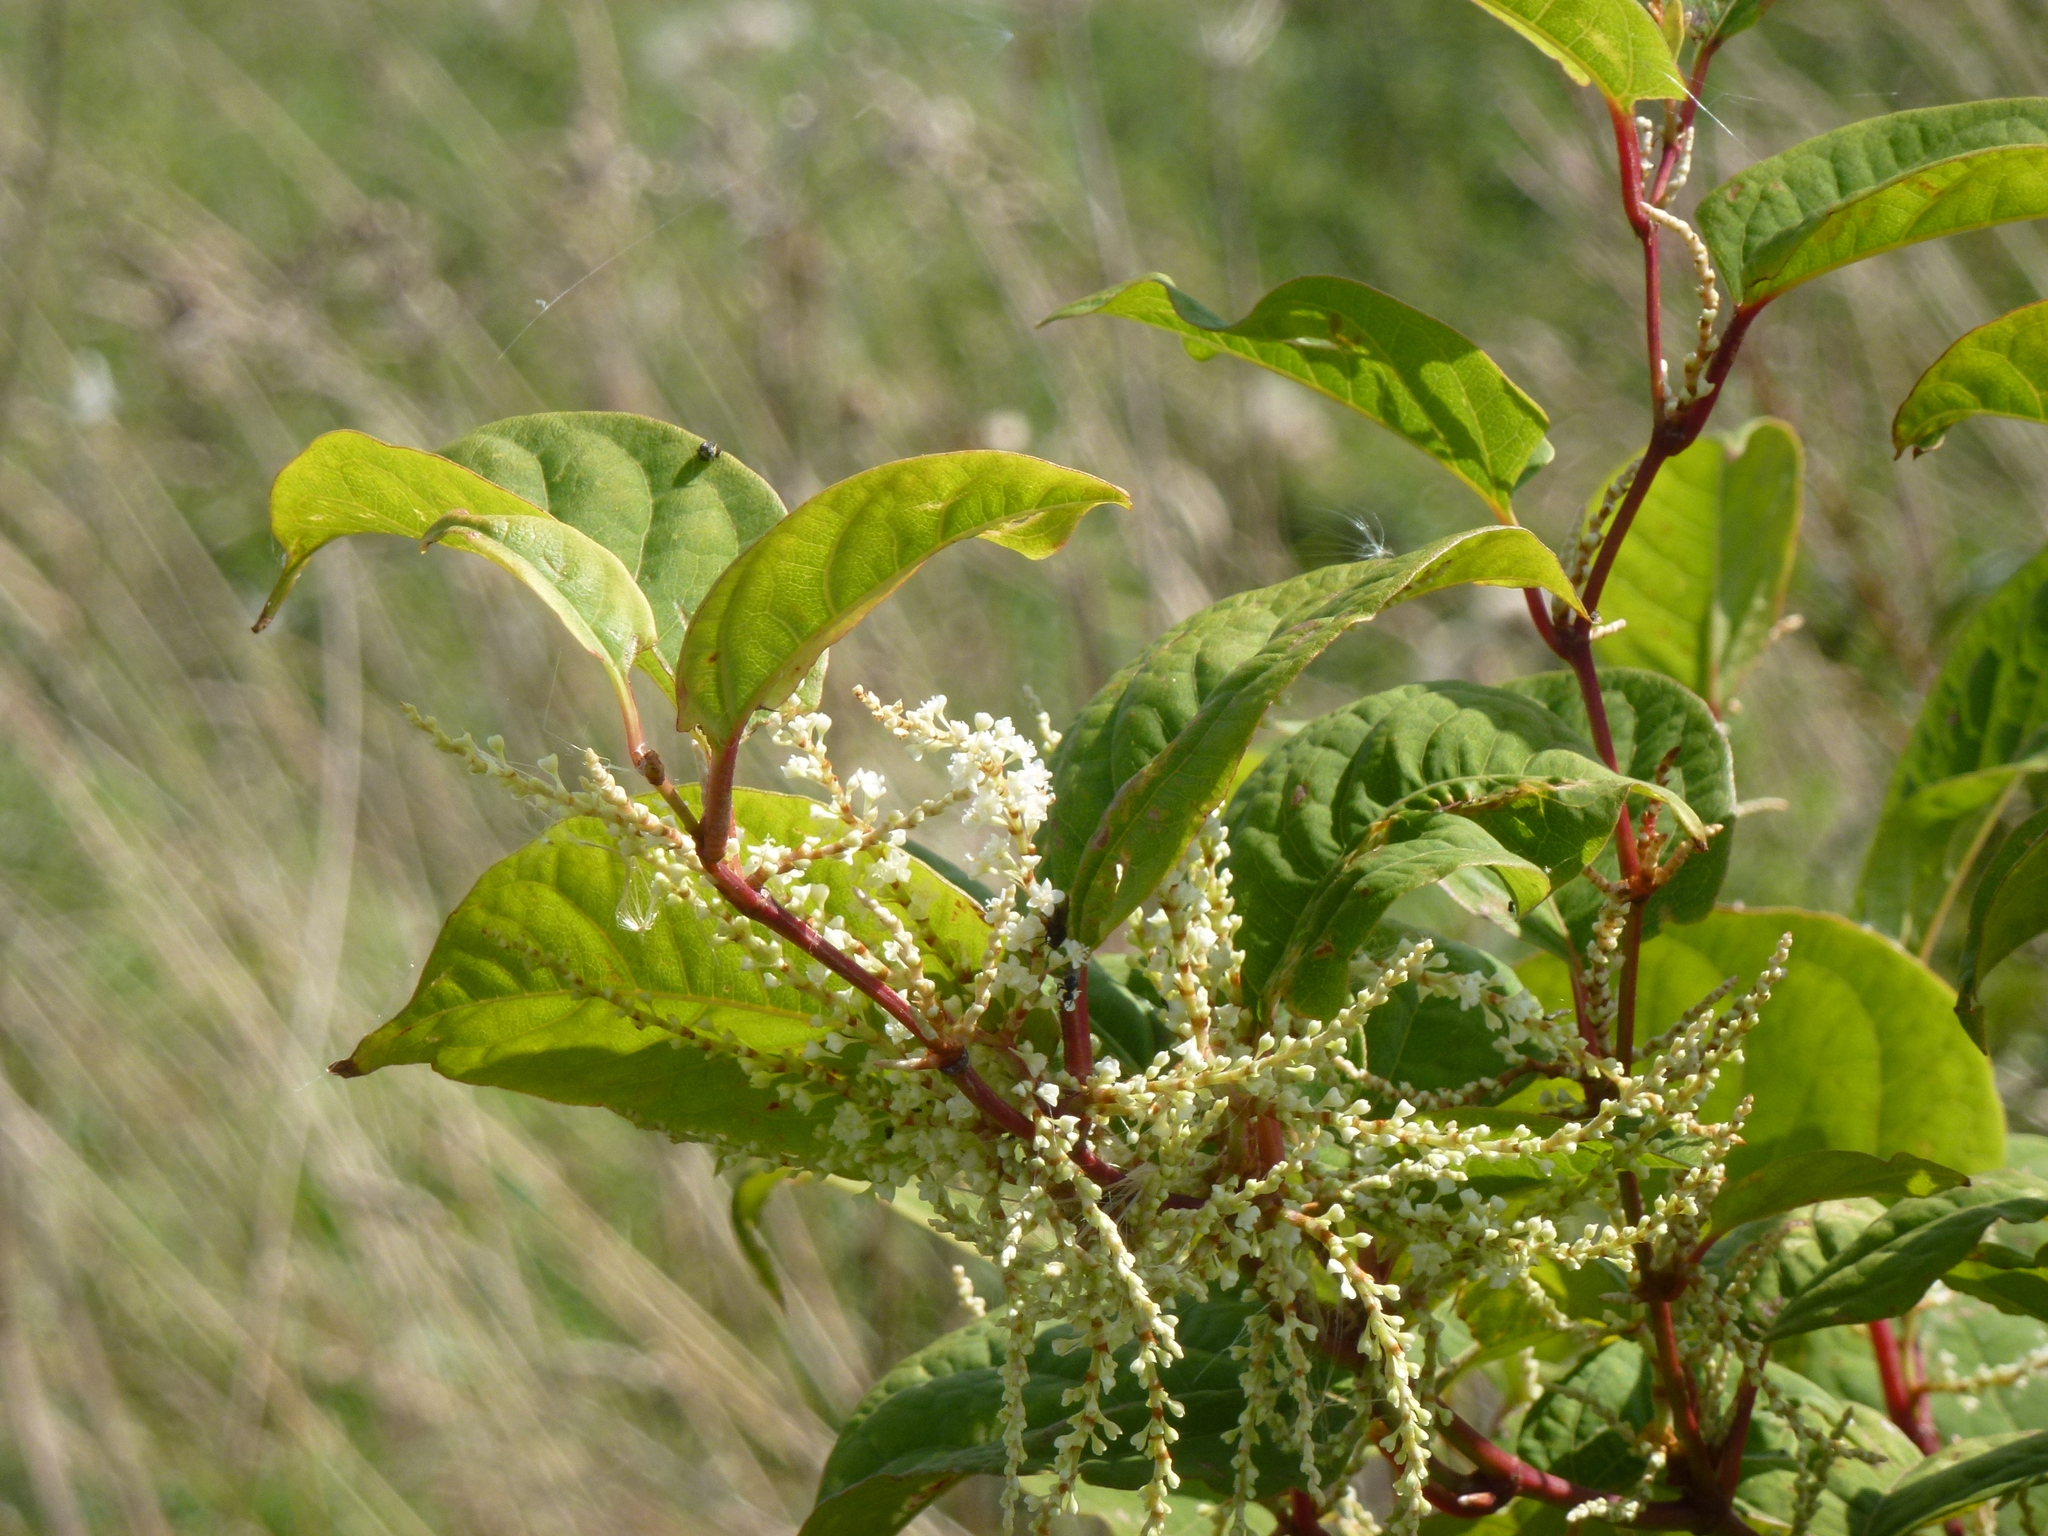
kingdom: Plantae
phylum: Tracheophyta
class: Magnoliopsida
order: Caryophyllales
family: Polygonaceae
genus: Reynoutria
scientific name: Reynoutria japonica
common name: Japanese knotweed
